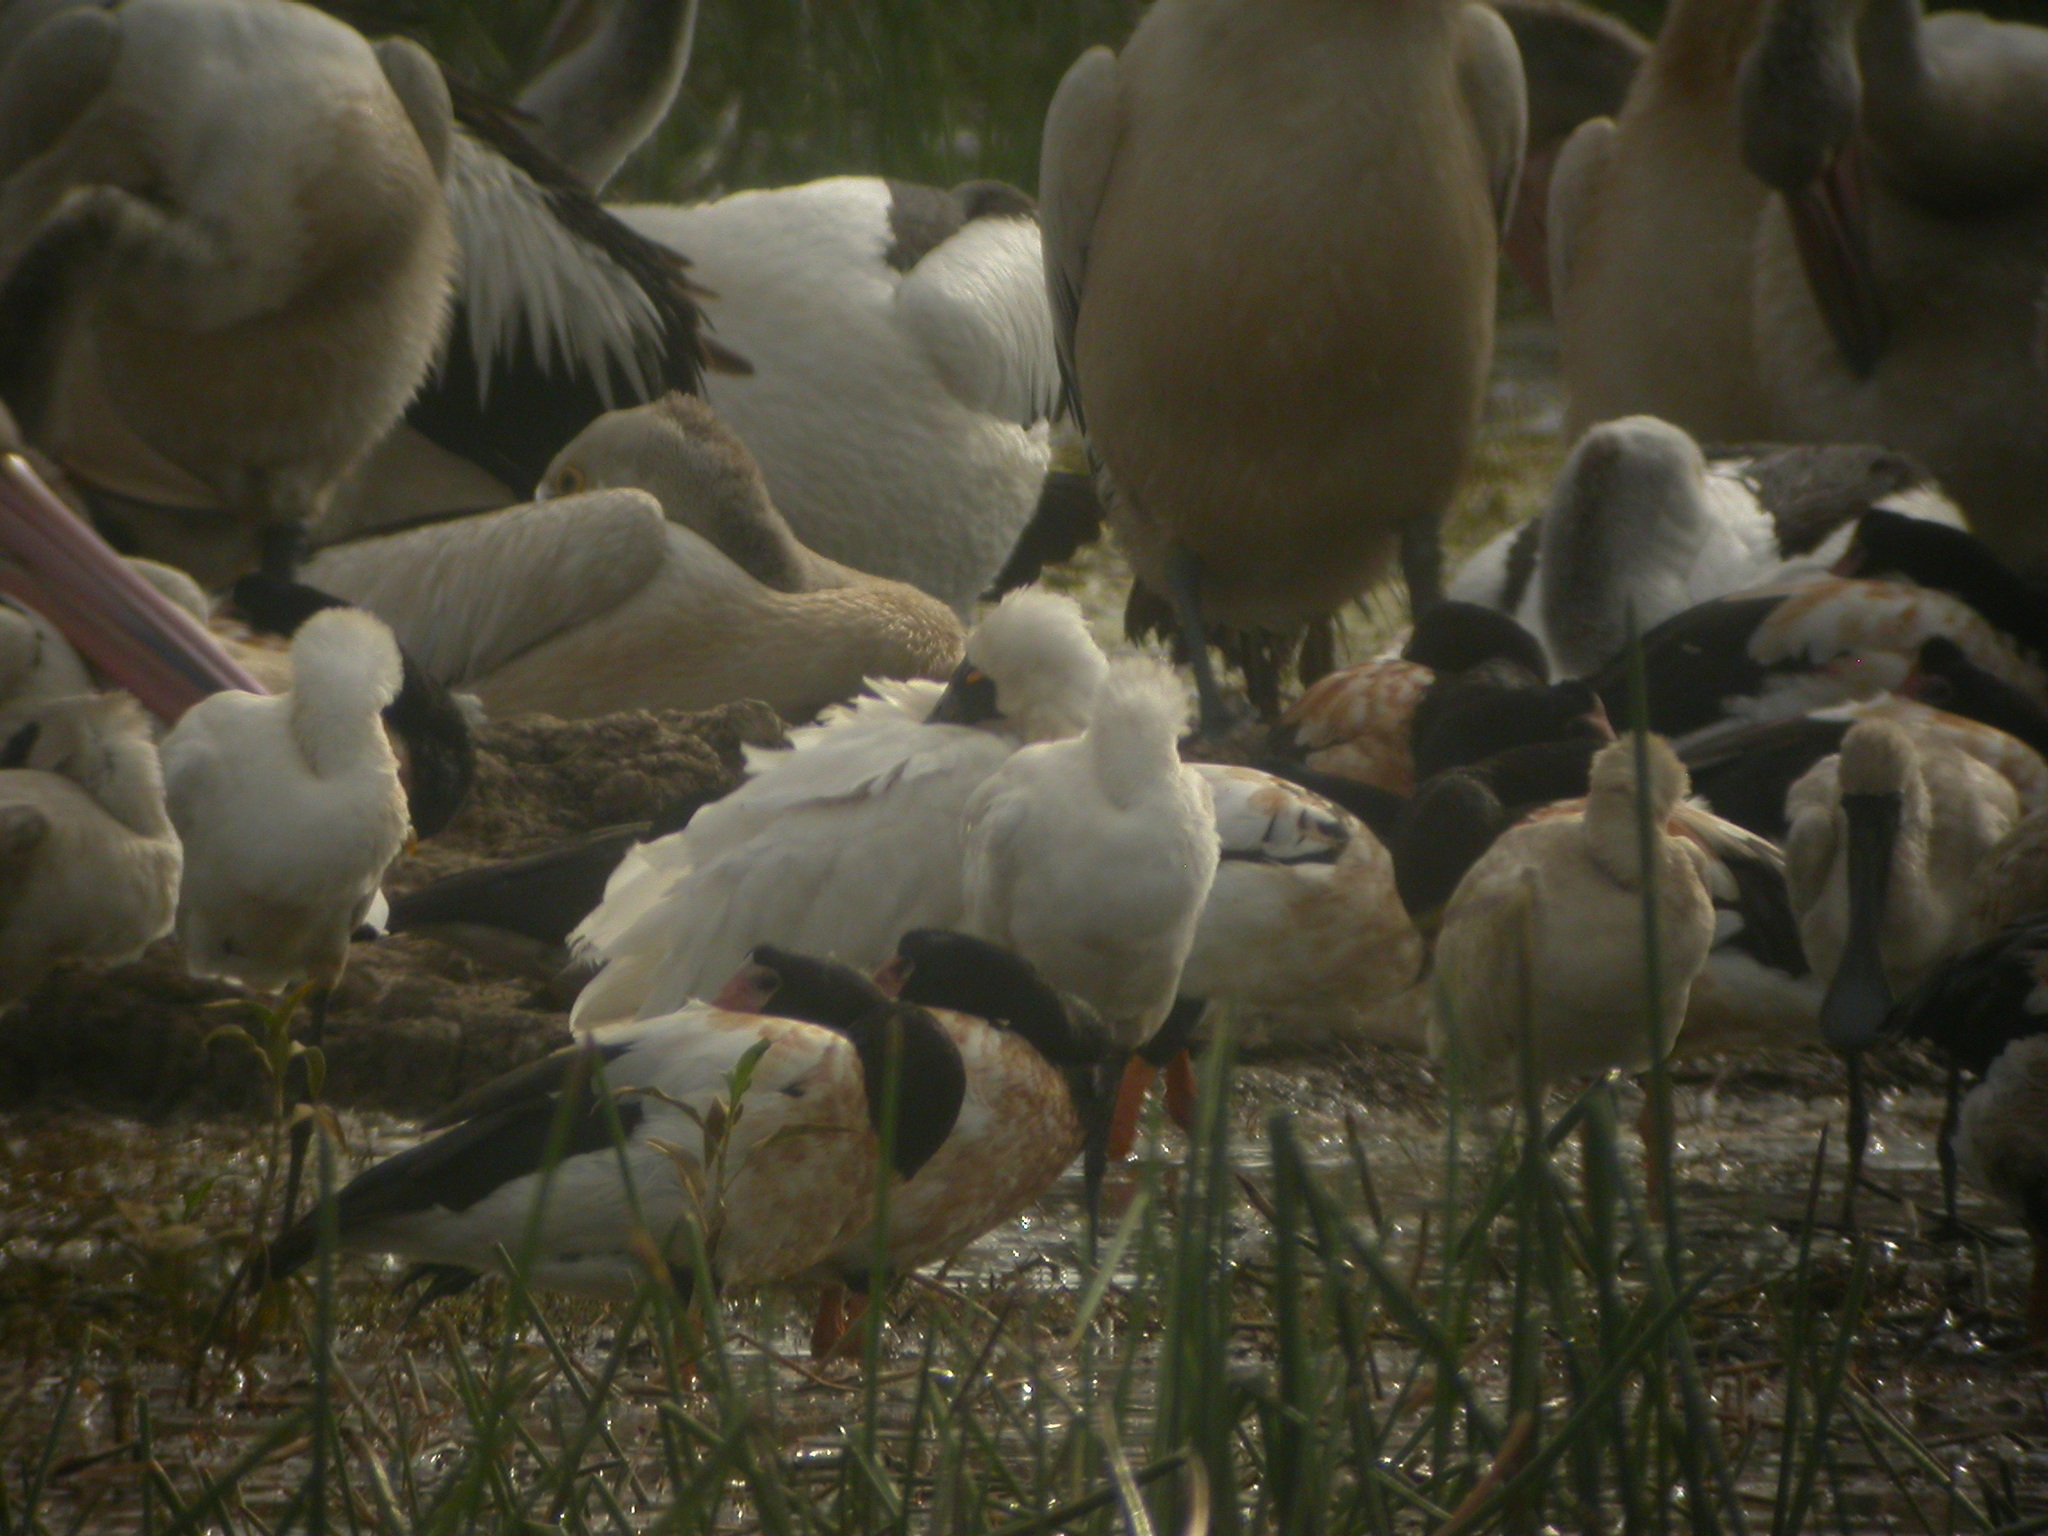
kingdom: Animalia
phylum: Chordata
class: Aves
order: Pelecaniformes
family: Threskiornithidae
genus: Platalea
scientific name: Platalea regia
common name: Royal spoonbill
